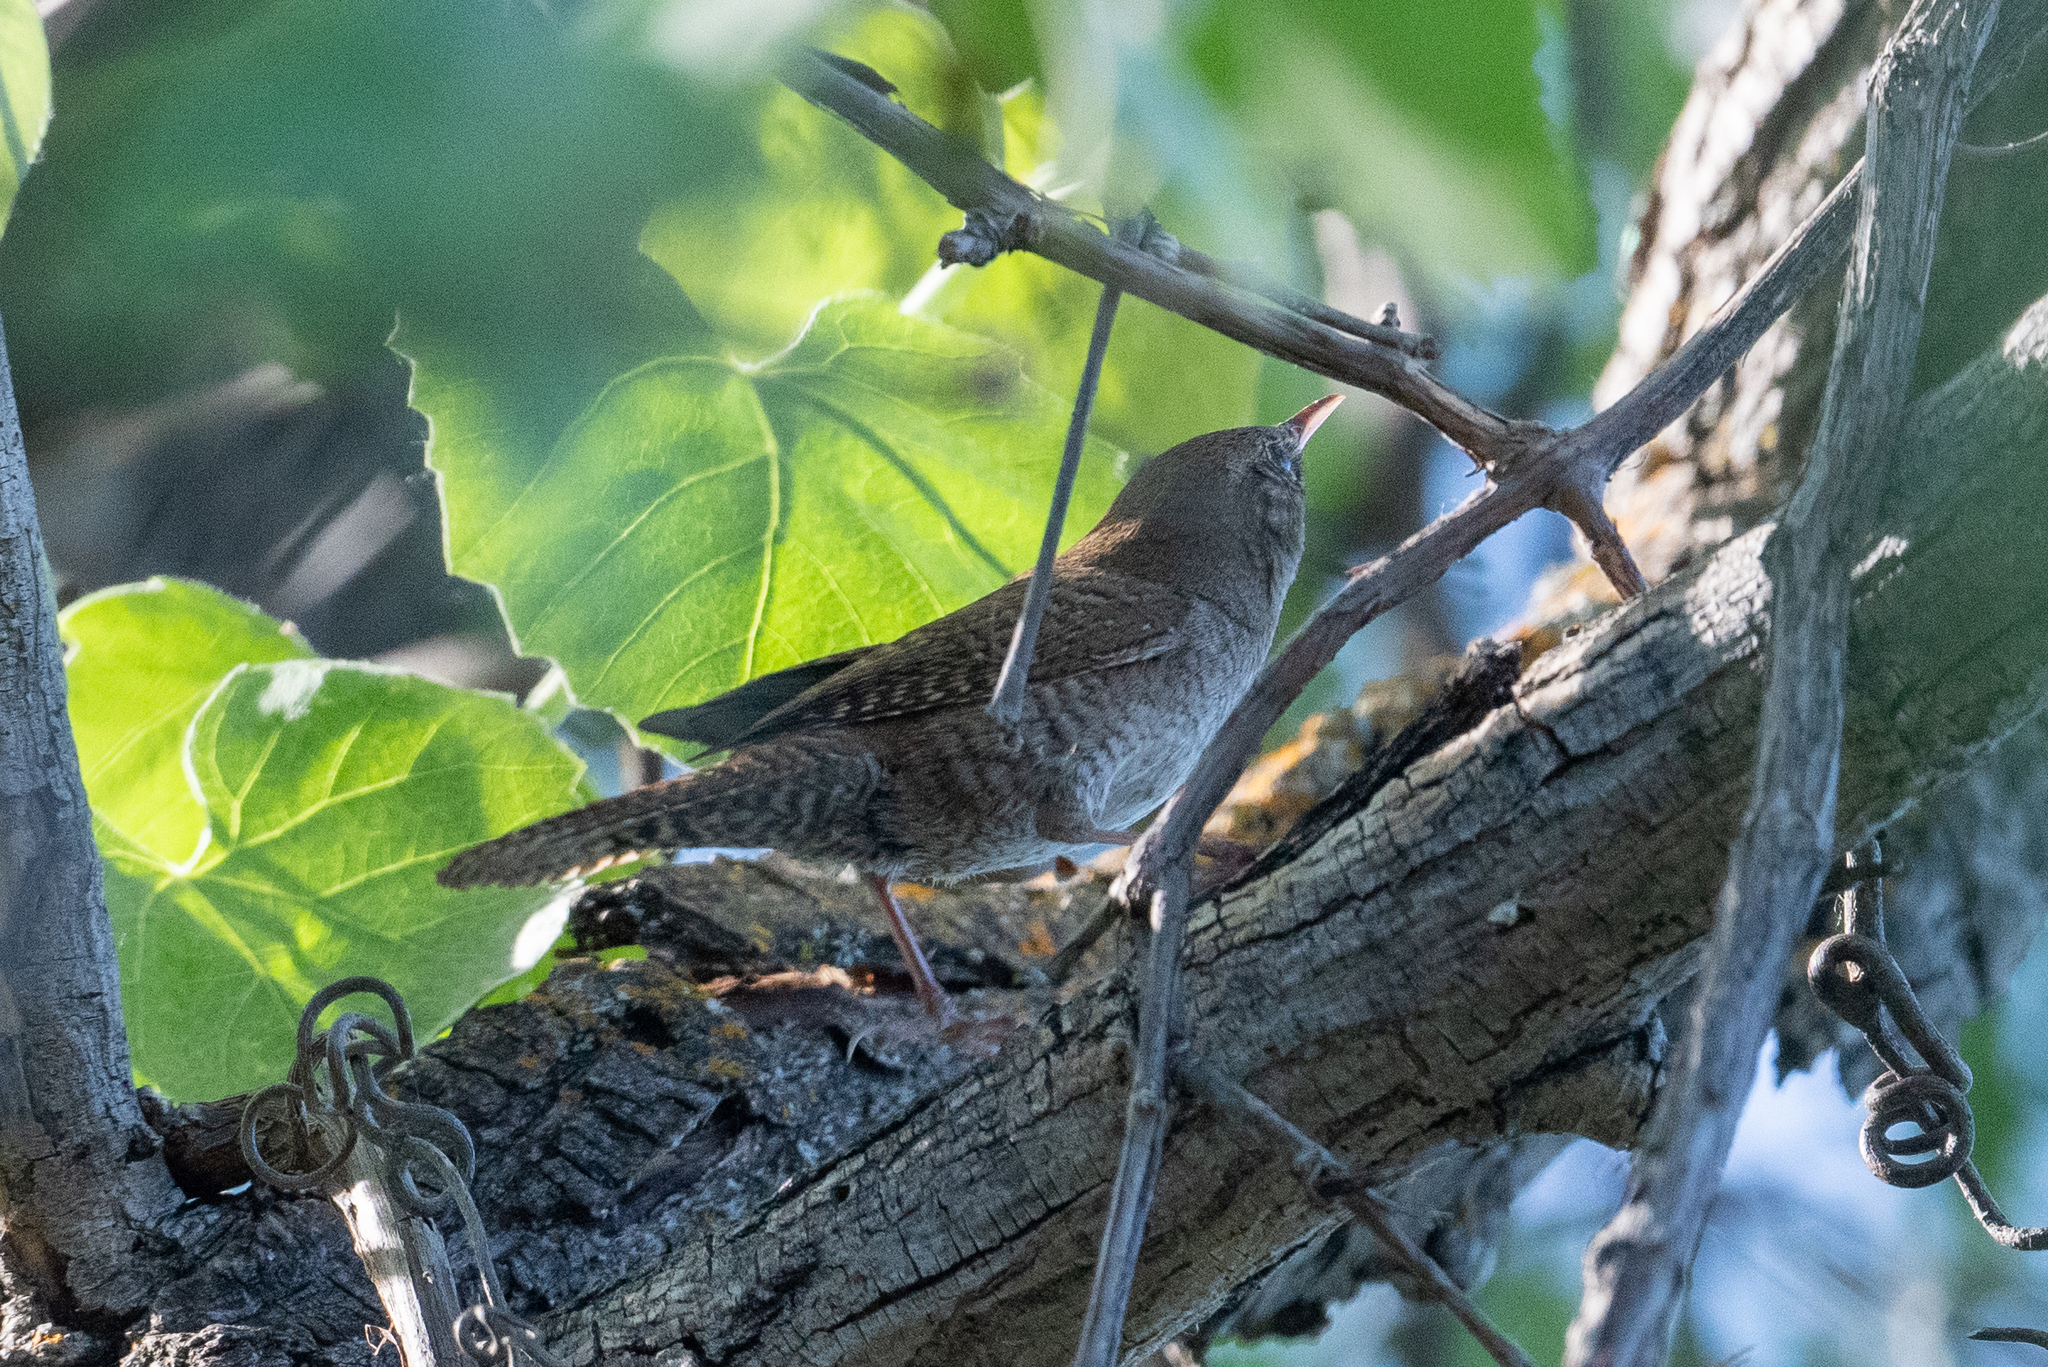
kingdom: Animalia
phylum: Chordata
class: Aves
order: Passeriformes
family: Troglodytidae
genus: Troglodytes
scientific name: Troglodytes aedon
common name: House wren
